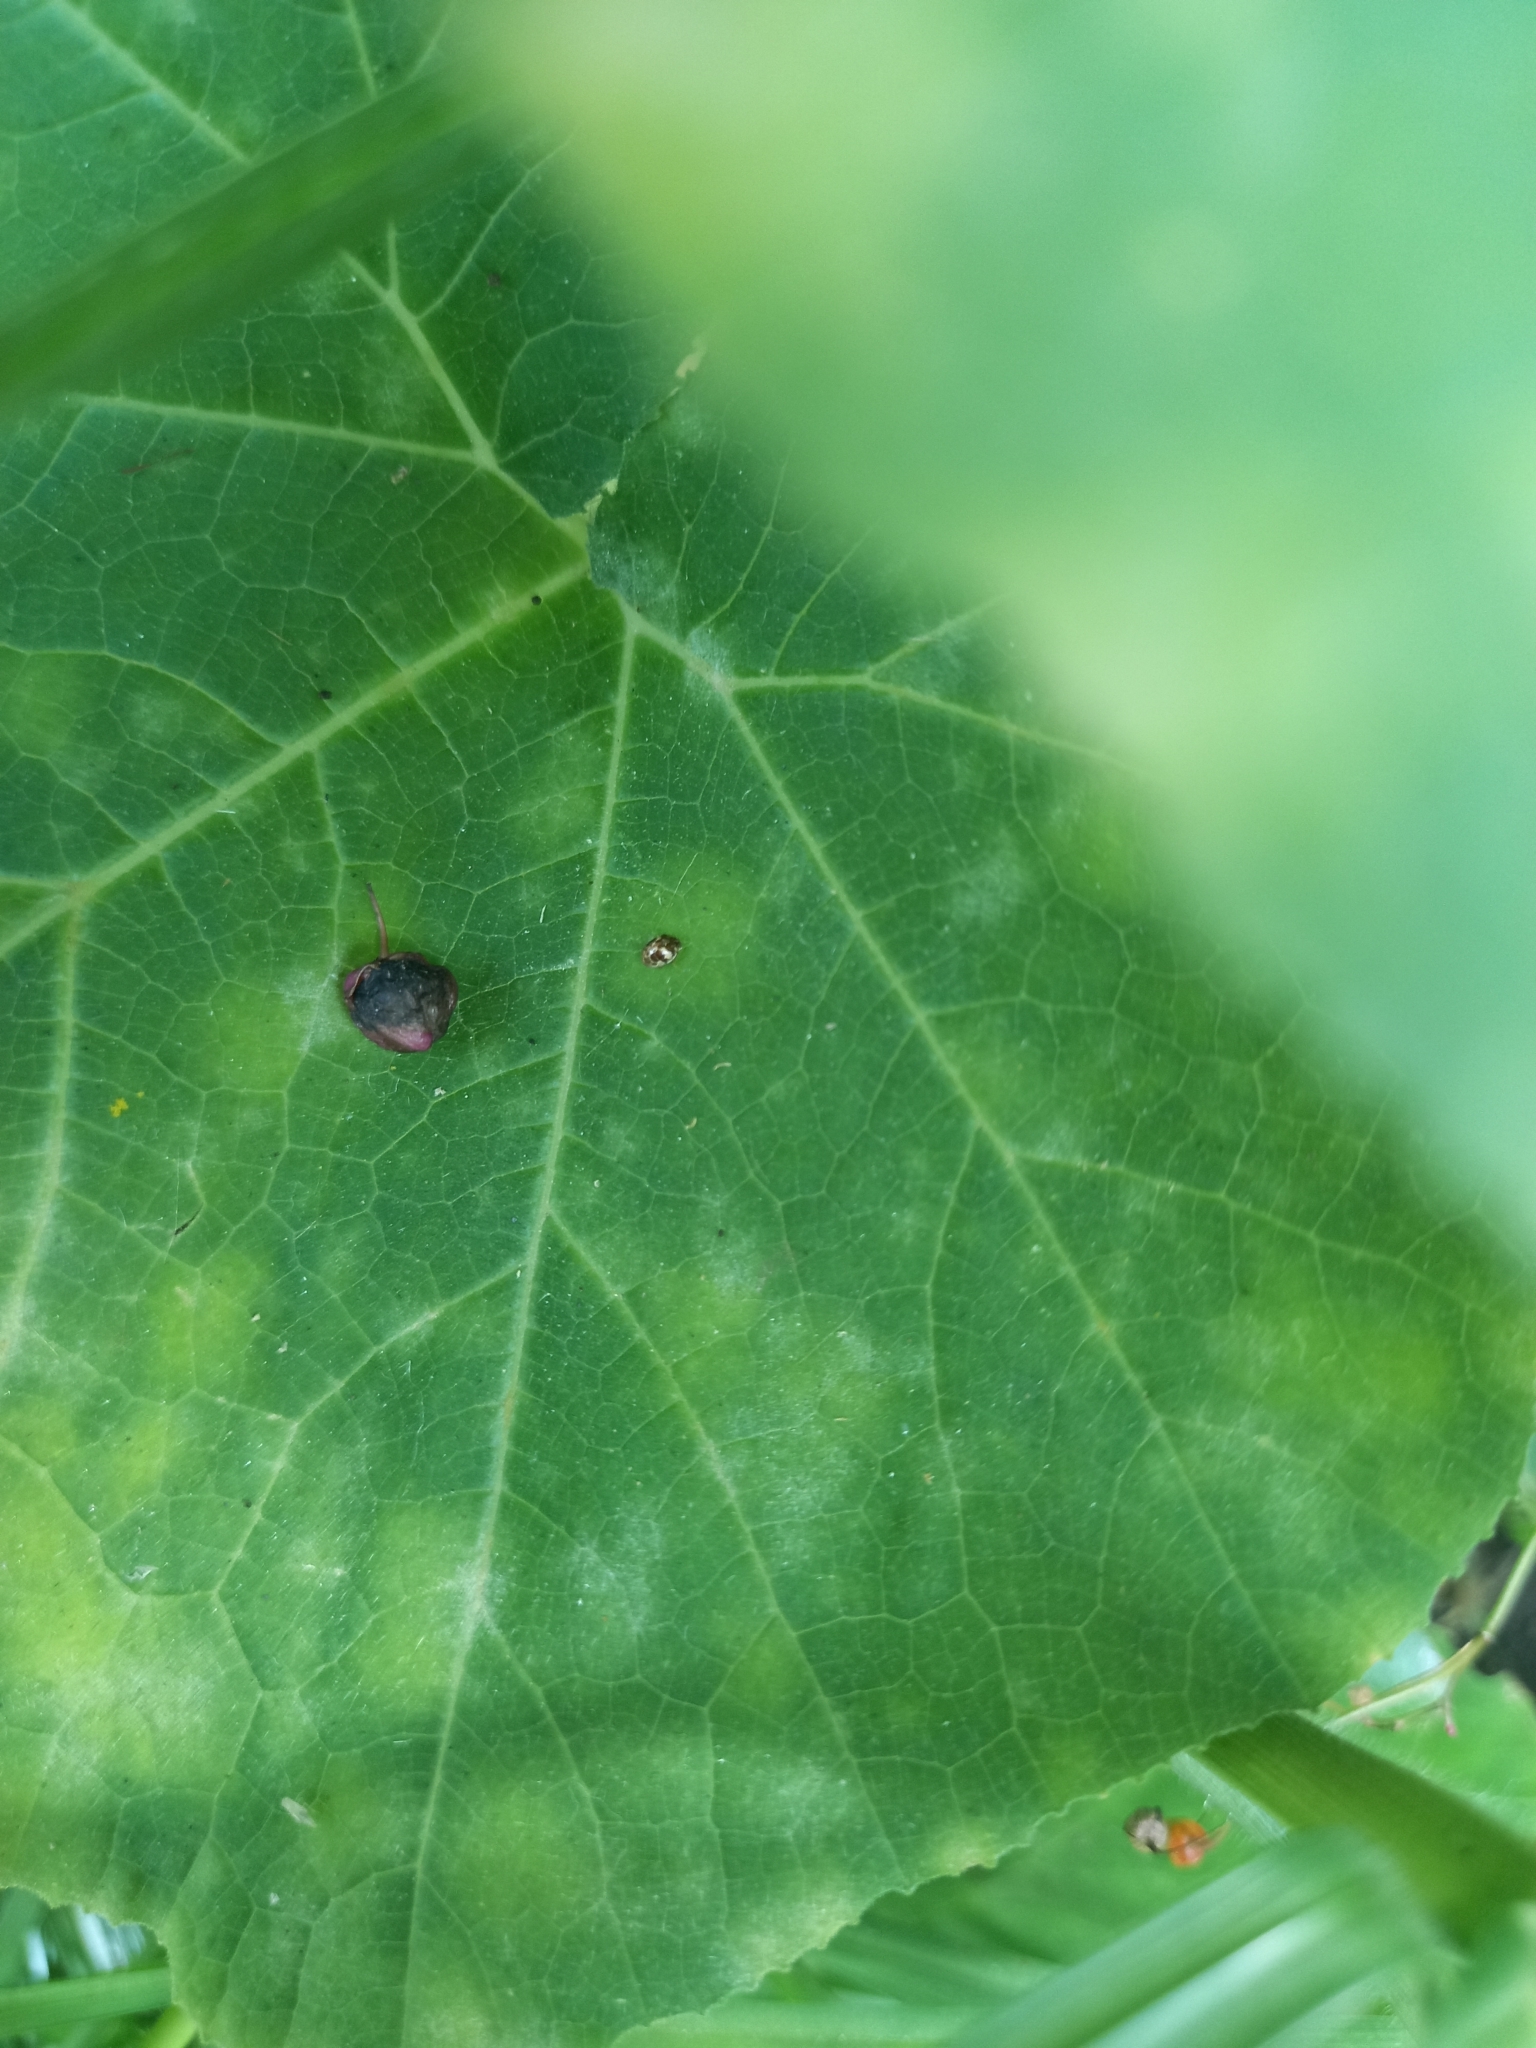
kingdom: Animalia
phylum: Arthropoda
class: Insecta
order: Coleoptera
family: Coccinellidae
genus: Psyllobora
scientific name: Psyllobora
